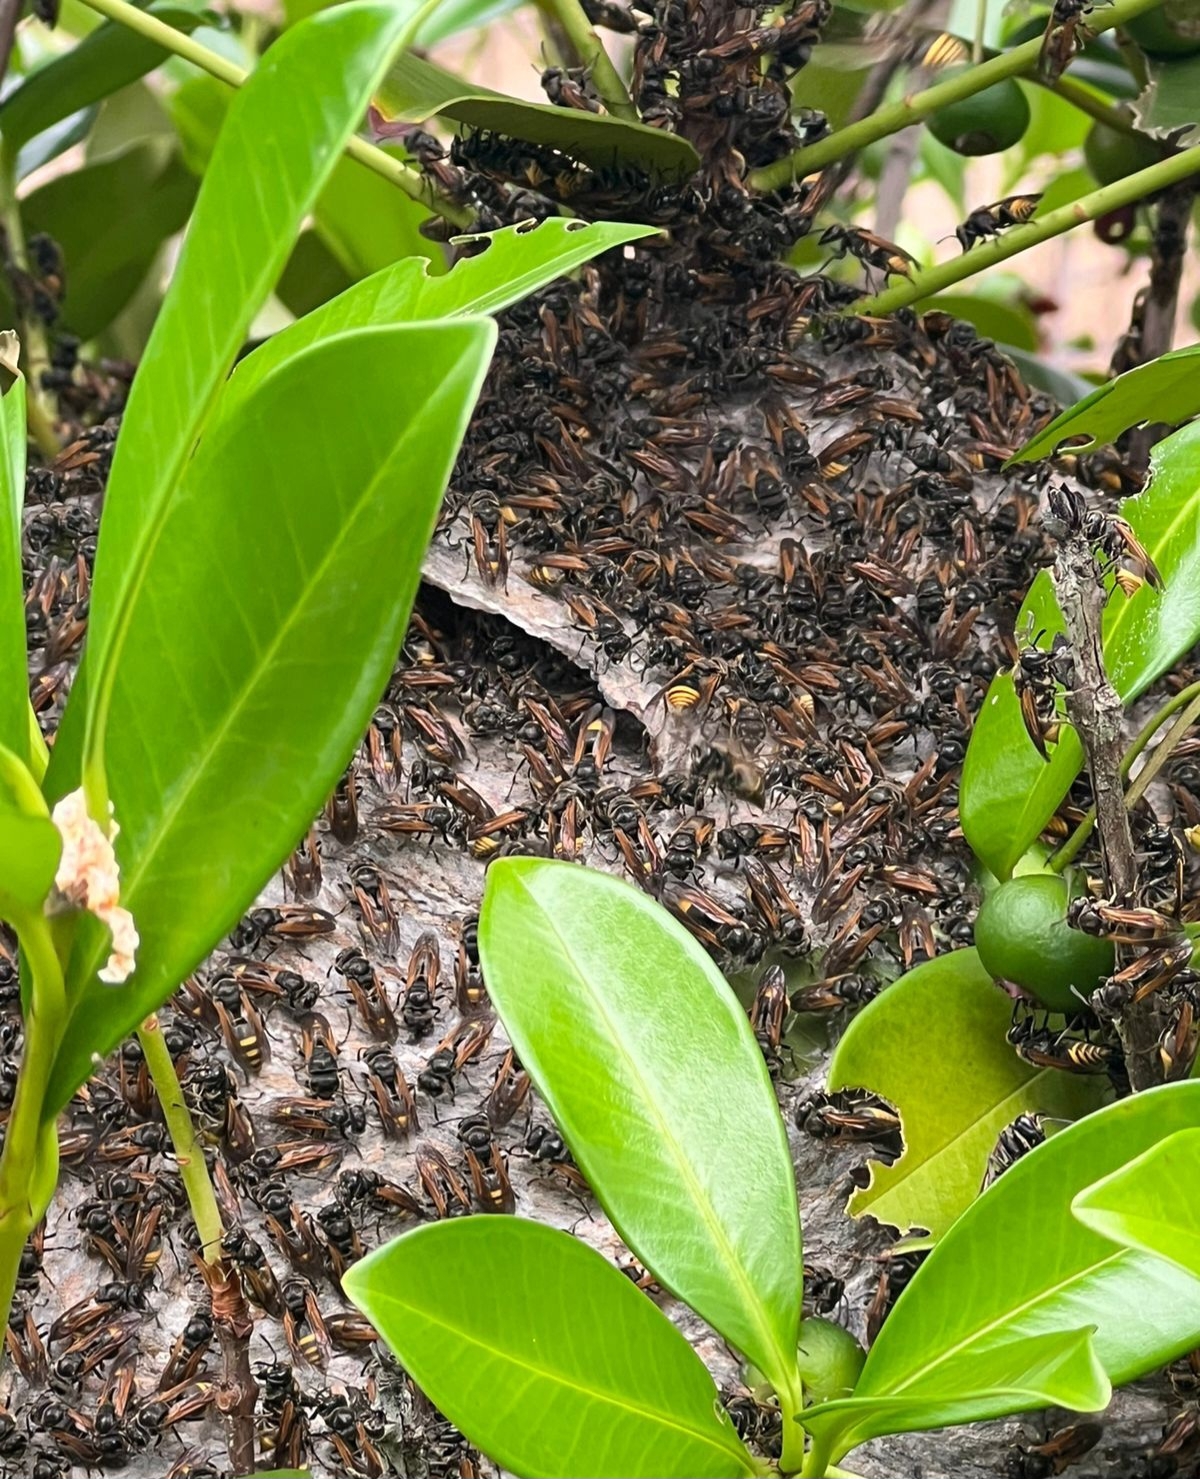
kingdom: Animalia
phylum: Arthropoda
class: Insecta
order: Hymenoptera
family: Vespidae
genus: Brachygastra
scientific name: Brachygastra lecheguana
